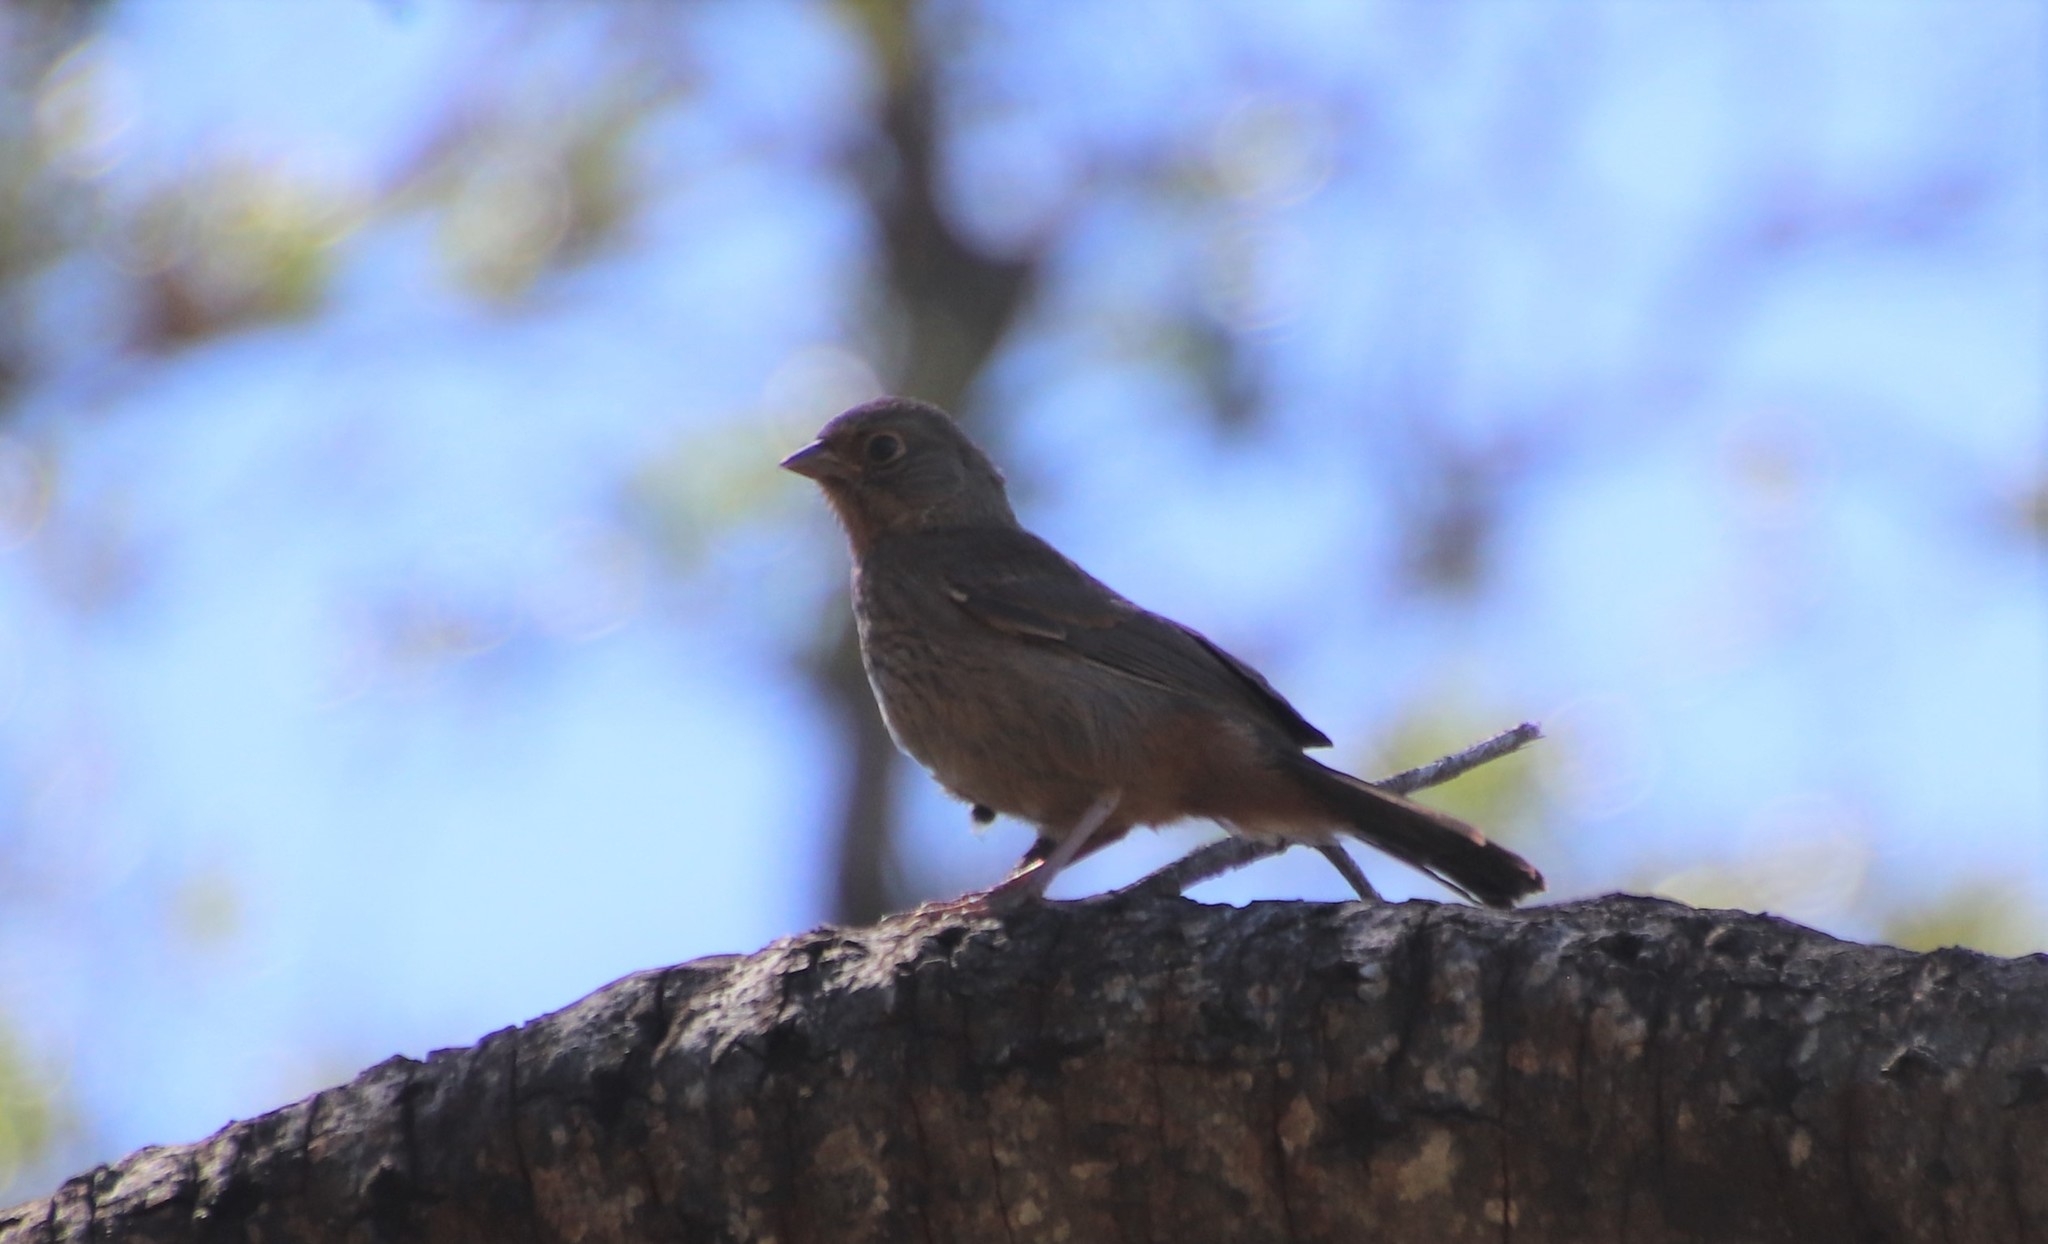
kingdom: Animalia
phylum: Chordata
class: Aves
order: Passeriformes
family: Passerellidae
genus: Melozone
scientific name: Melozone crissalis
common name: California towhee
